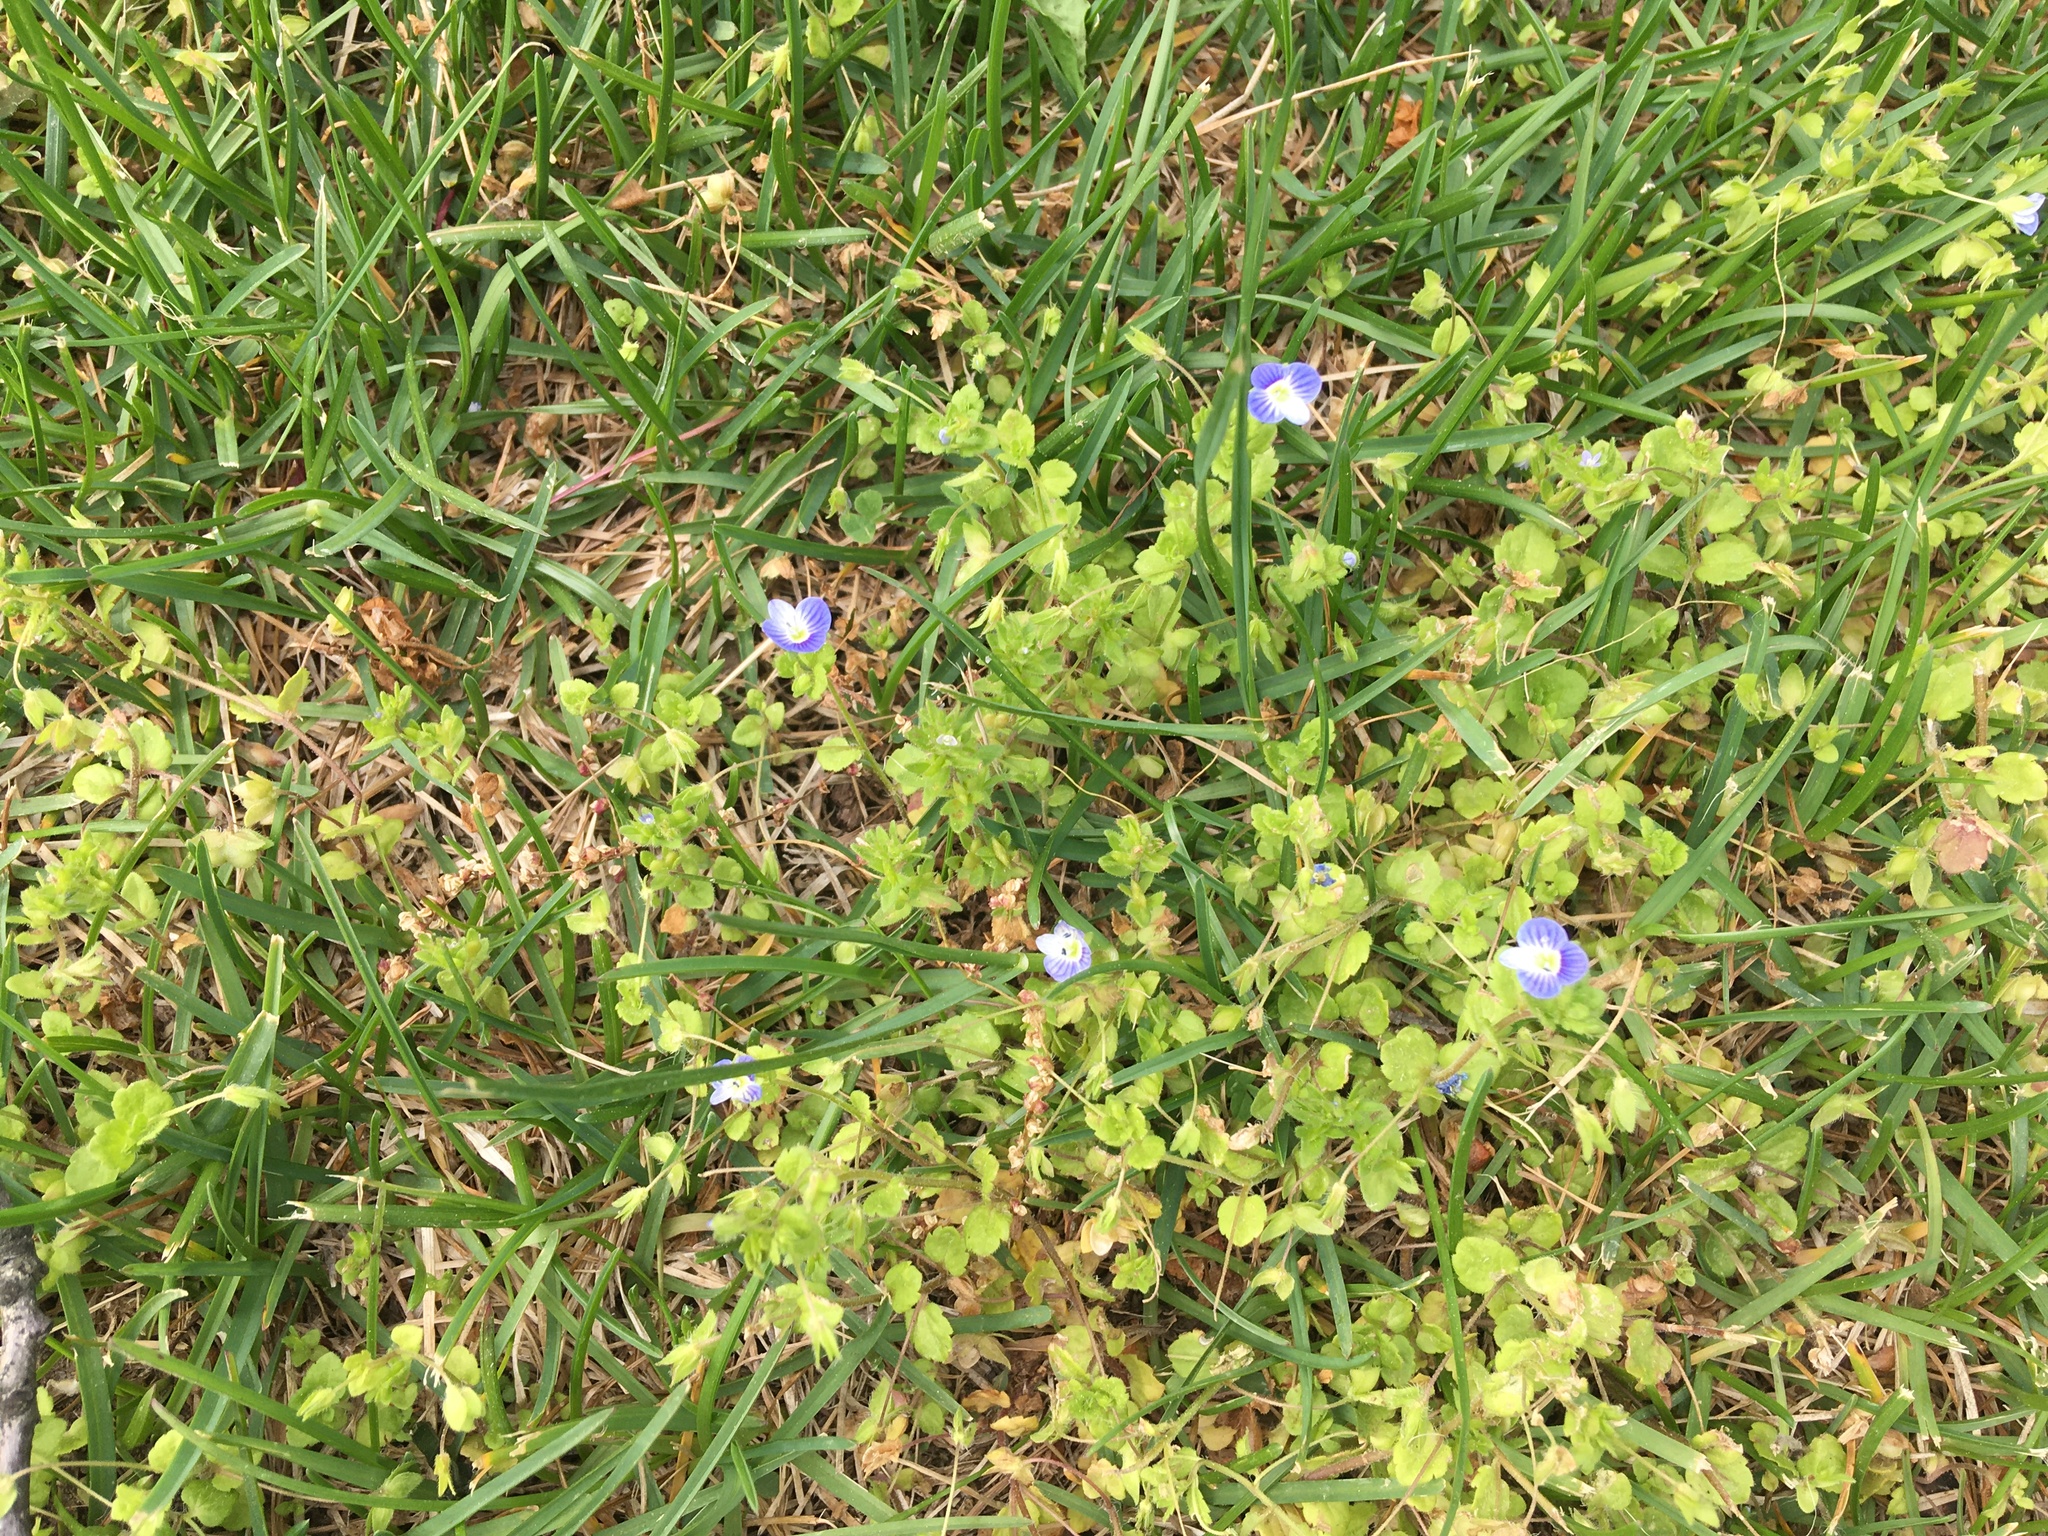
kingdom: Plantae
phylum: Tracheophyta
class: Magnoliopsida
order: Lamiales
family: Plantaginaceae
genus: Veronica
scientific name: Veronica persica
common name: Common field-speedwell
